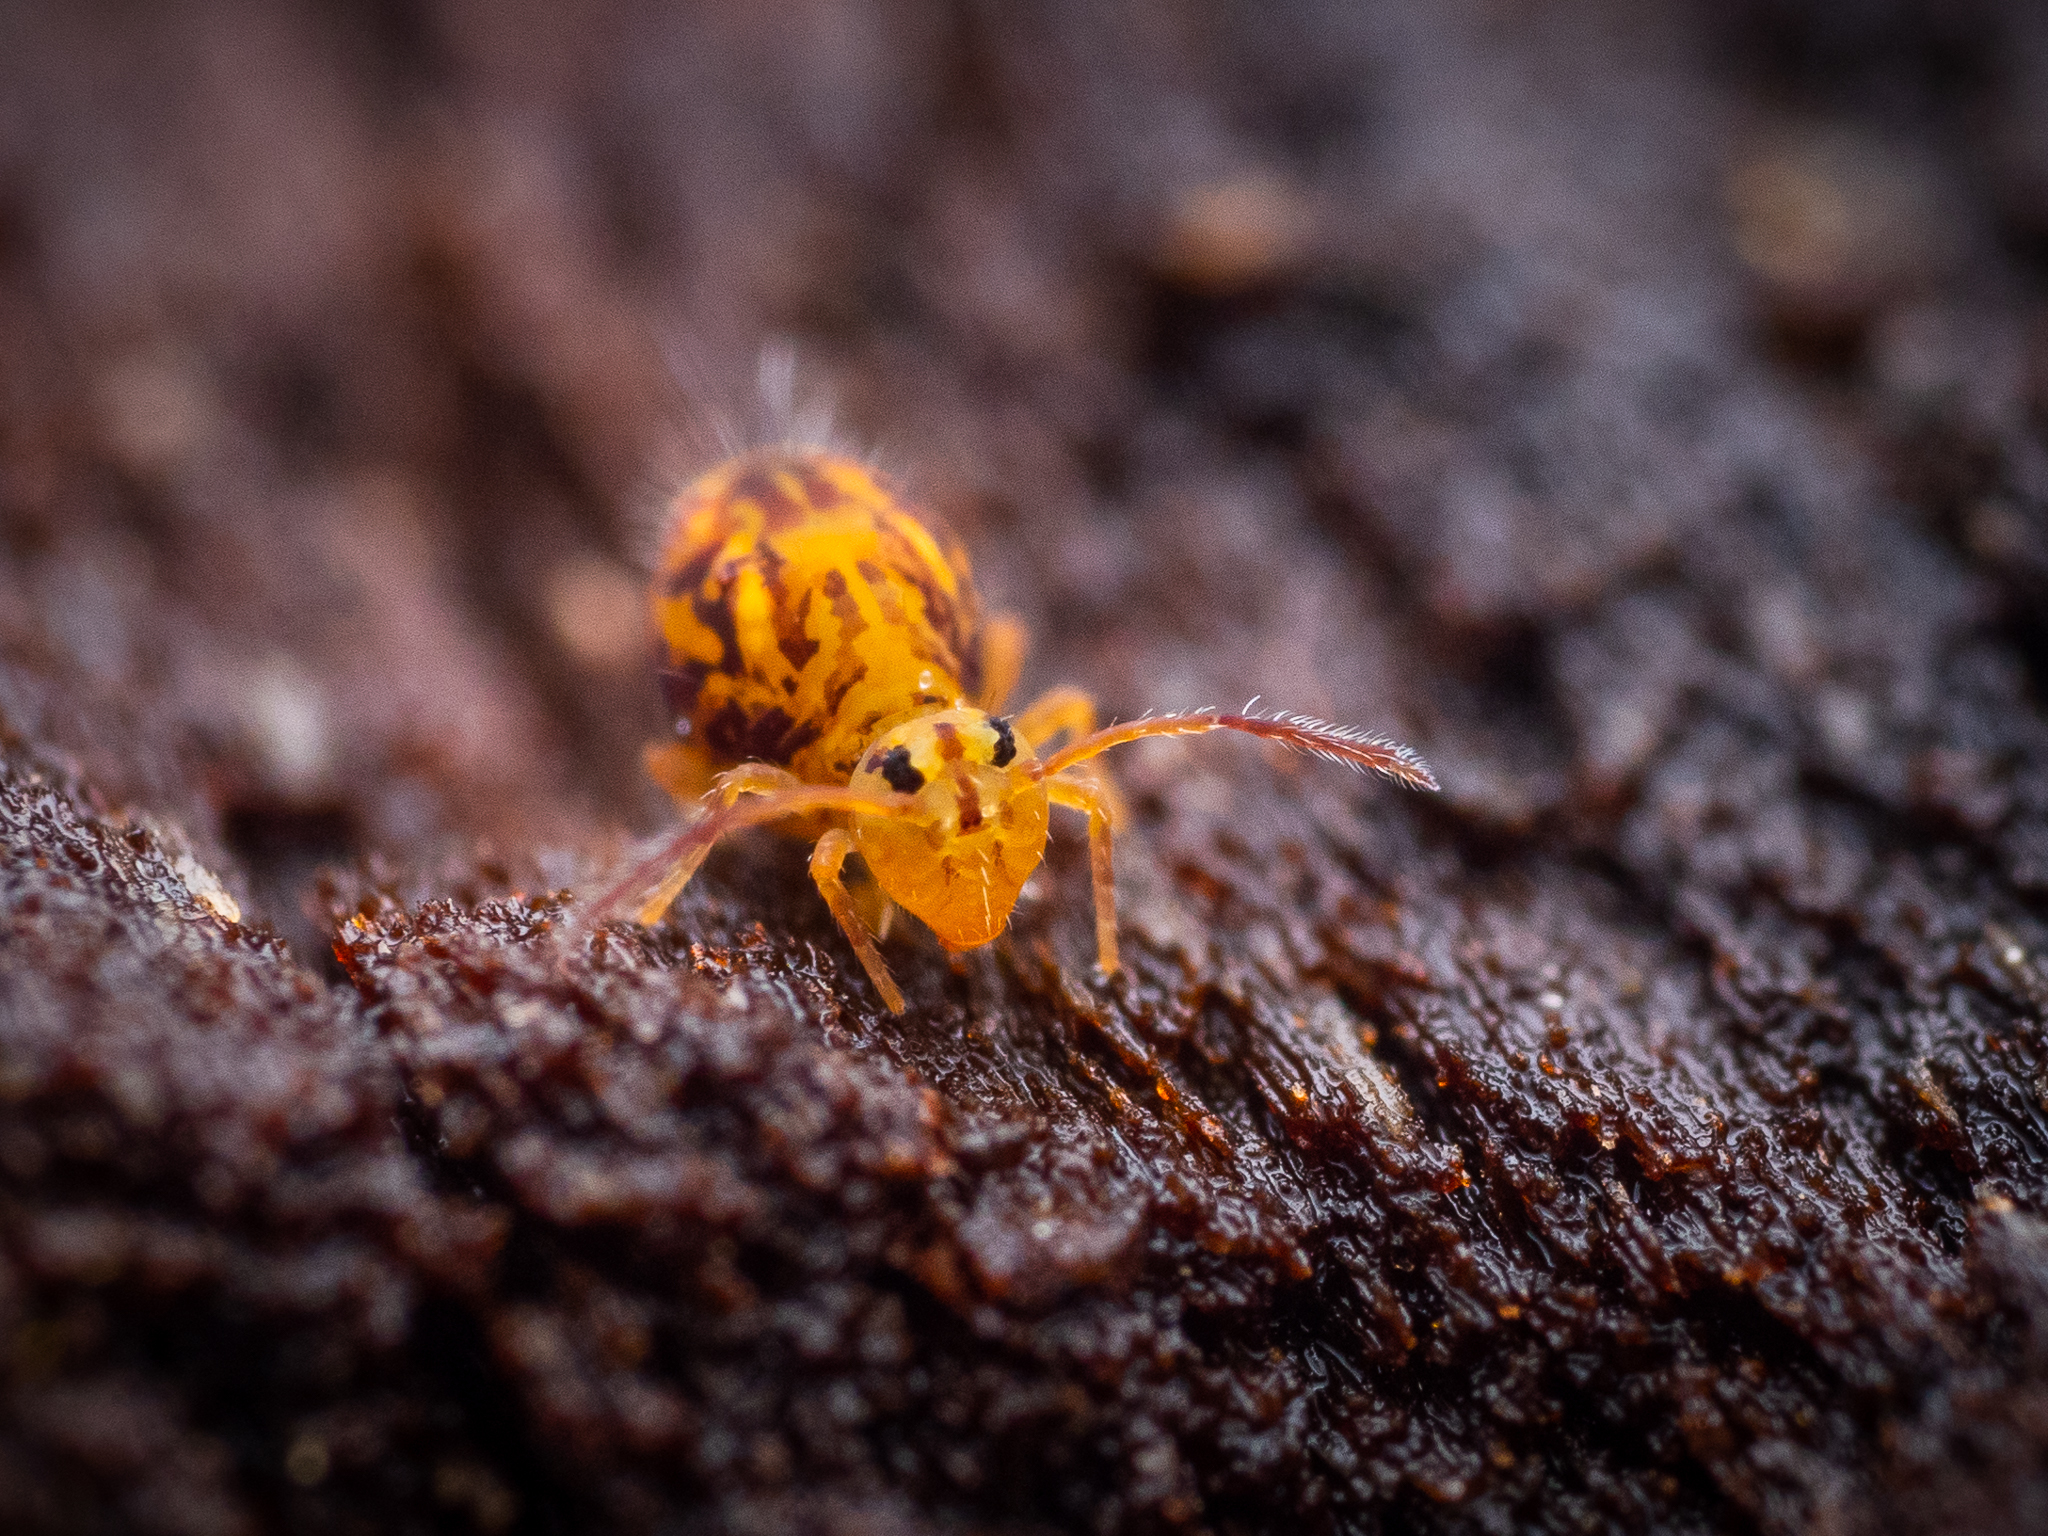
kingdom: Animalia
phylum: Arthropoda
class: Collembola
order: Symphypleona
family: Dicyrtomidae
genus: Dicyrtomina
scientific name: Dicyrtomina ornata
